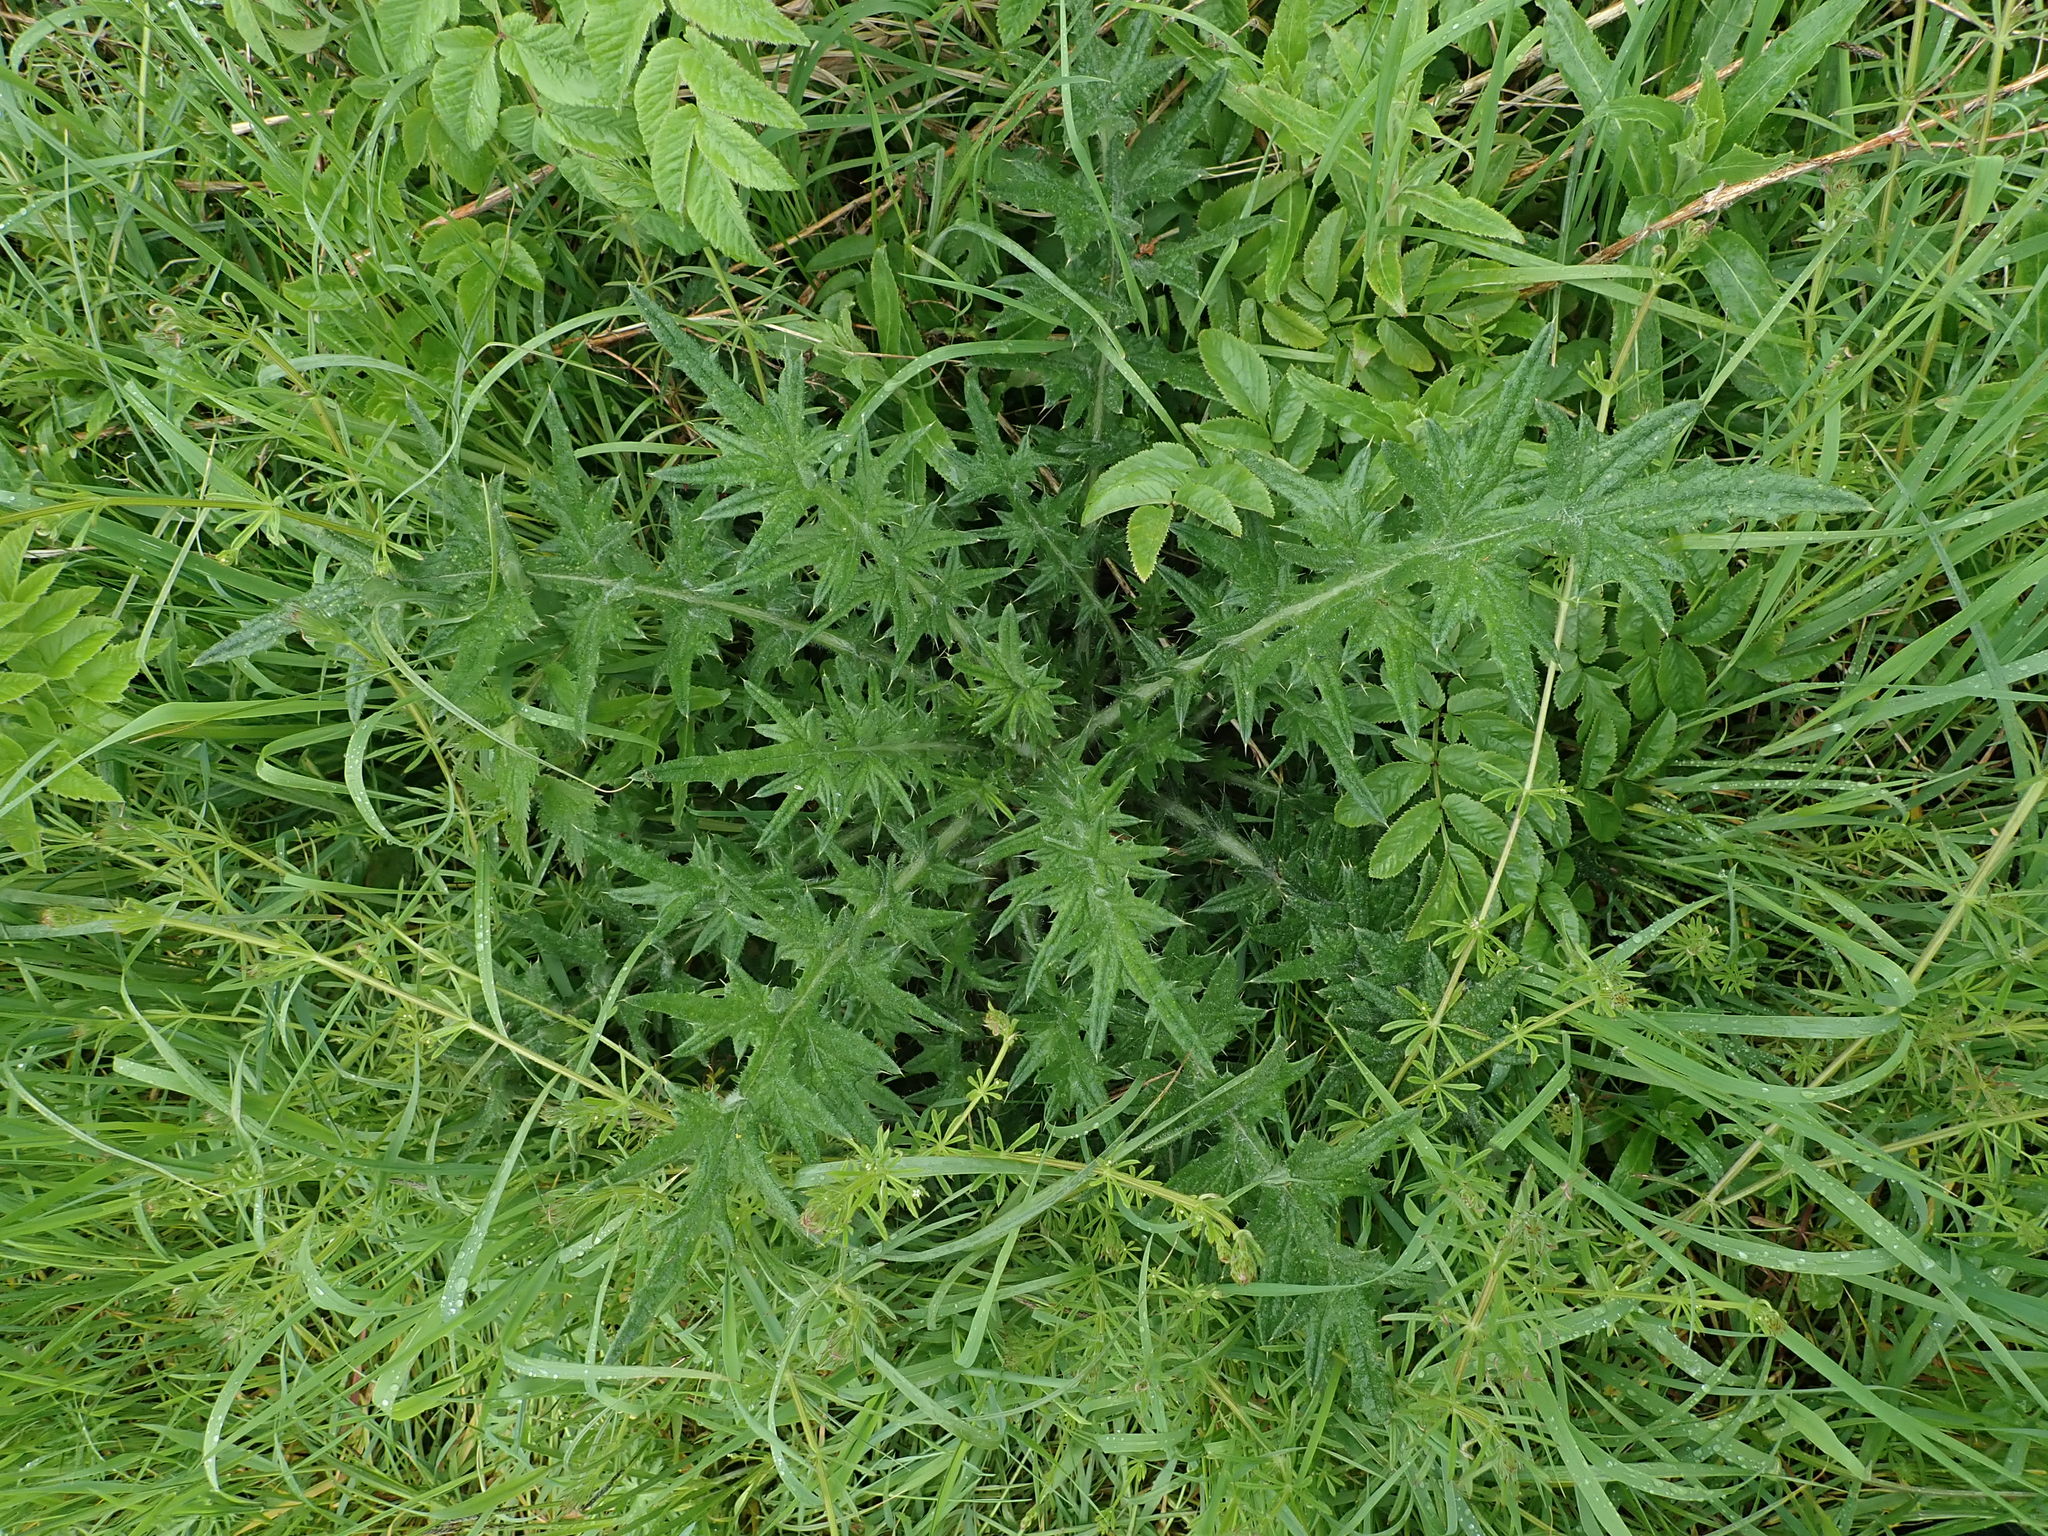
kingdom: Plantae
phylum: Tracheophyta
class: Magnoliopsida
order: Asterales
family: Asteraceae
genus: Cirsium
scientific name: Cirsium vulgare
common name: Bull thistle
